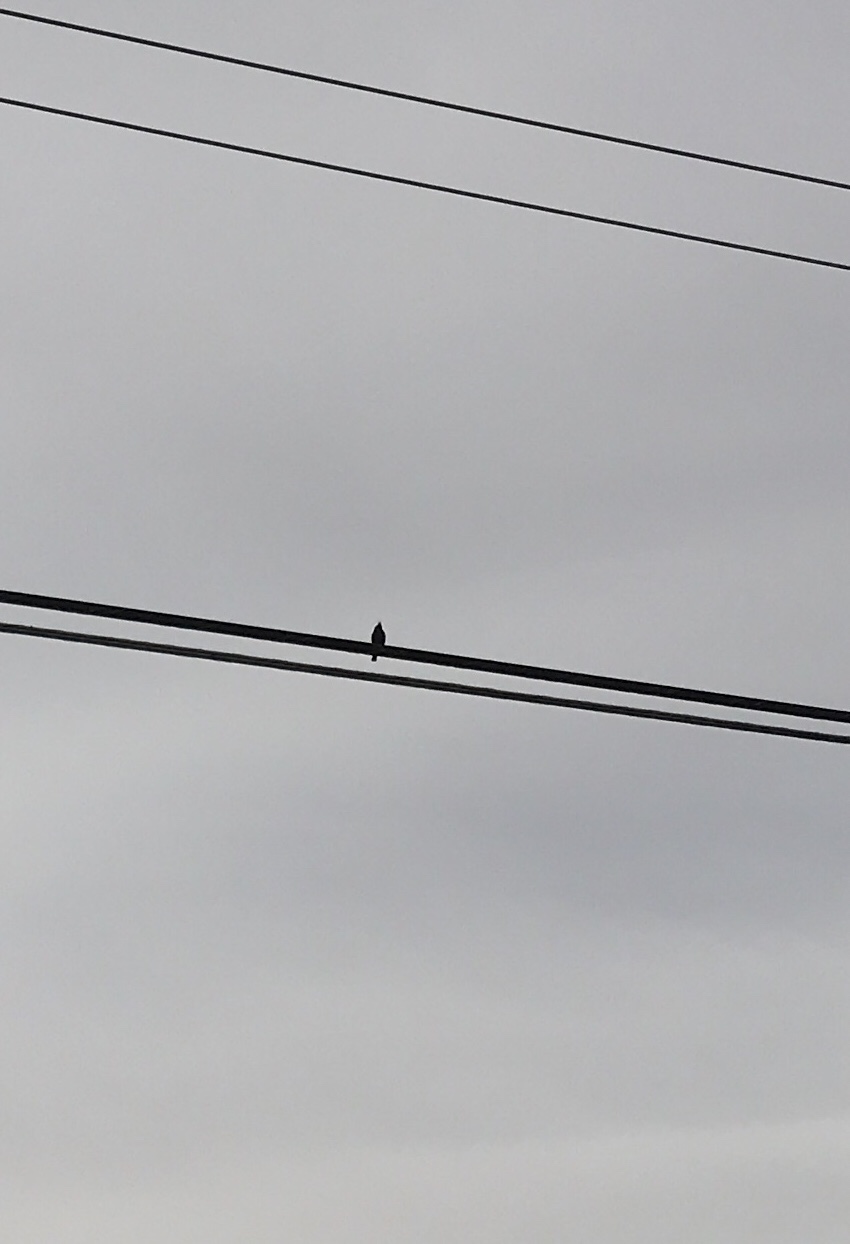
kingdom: Animalia
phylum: Chordata
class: Aves
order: Passeriformes
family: Ptilogonatidae
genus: Phainopepla
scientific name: Phainopepla nitens
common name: Phainopepla
